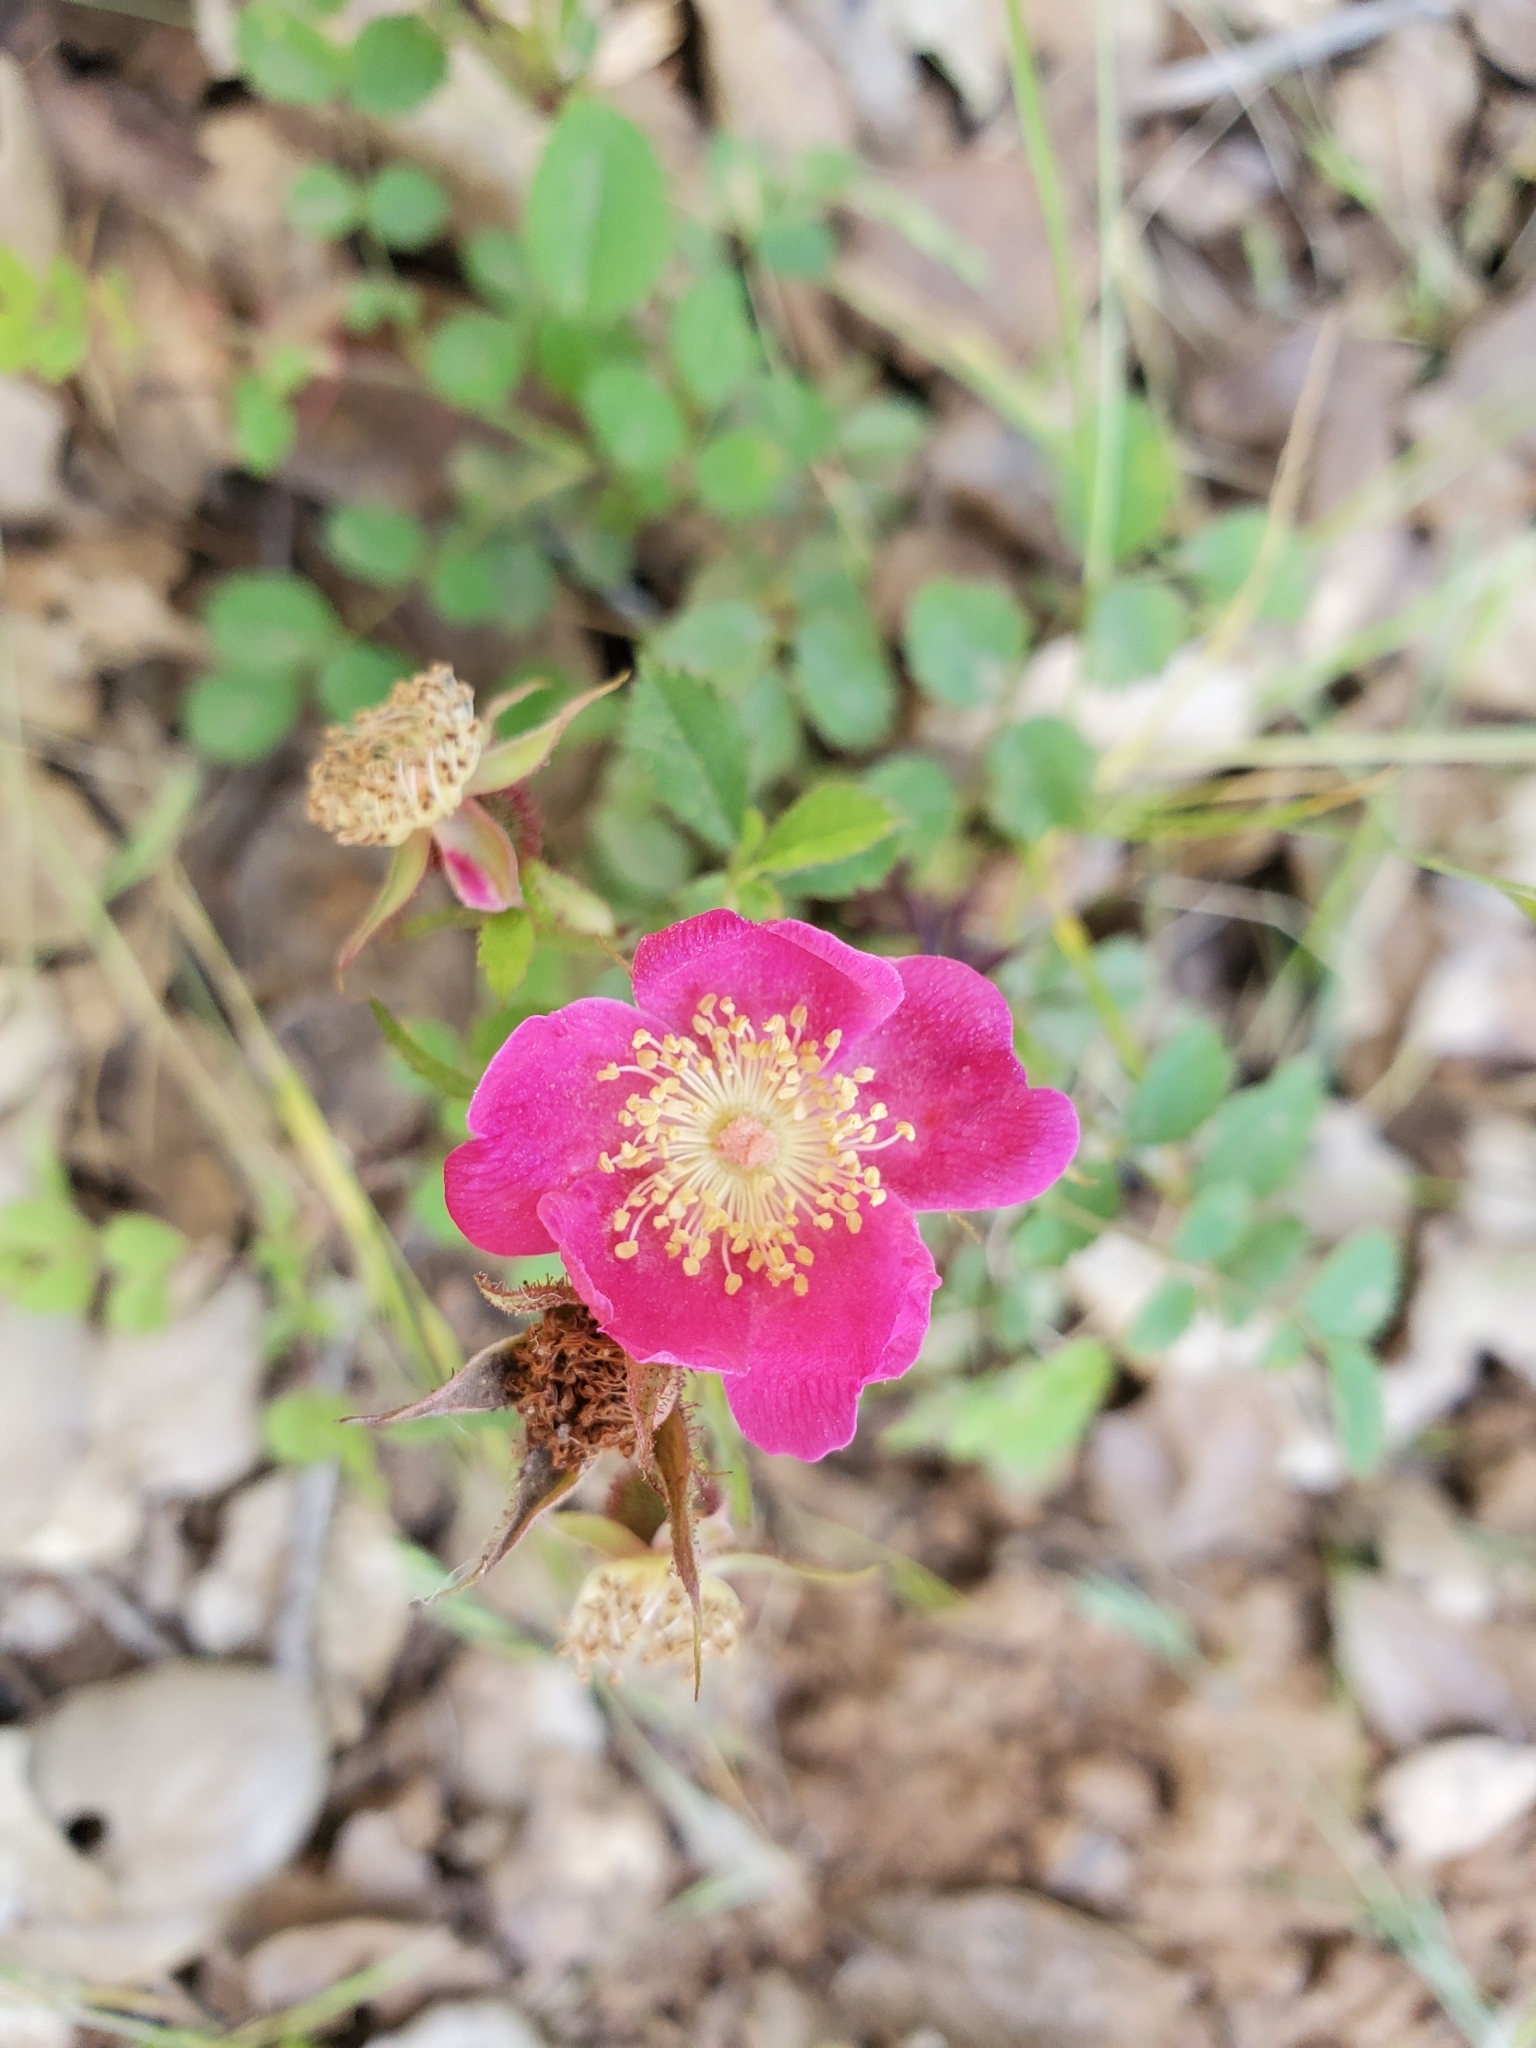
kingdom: Plantae
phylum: Tracheophyta
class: Magnoliopsida
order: Rosales
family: Rosaceae
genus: Rosa
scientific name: Rosa spithamea
